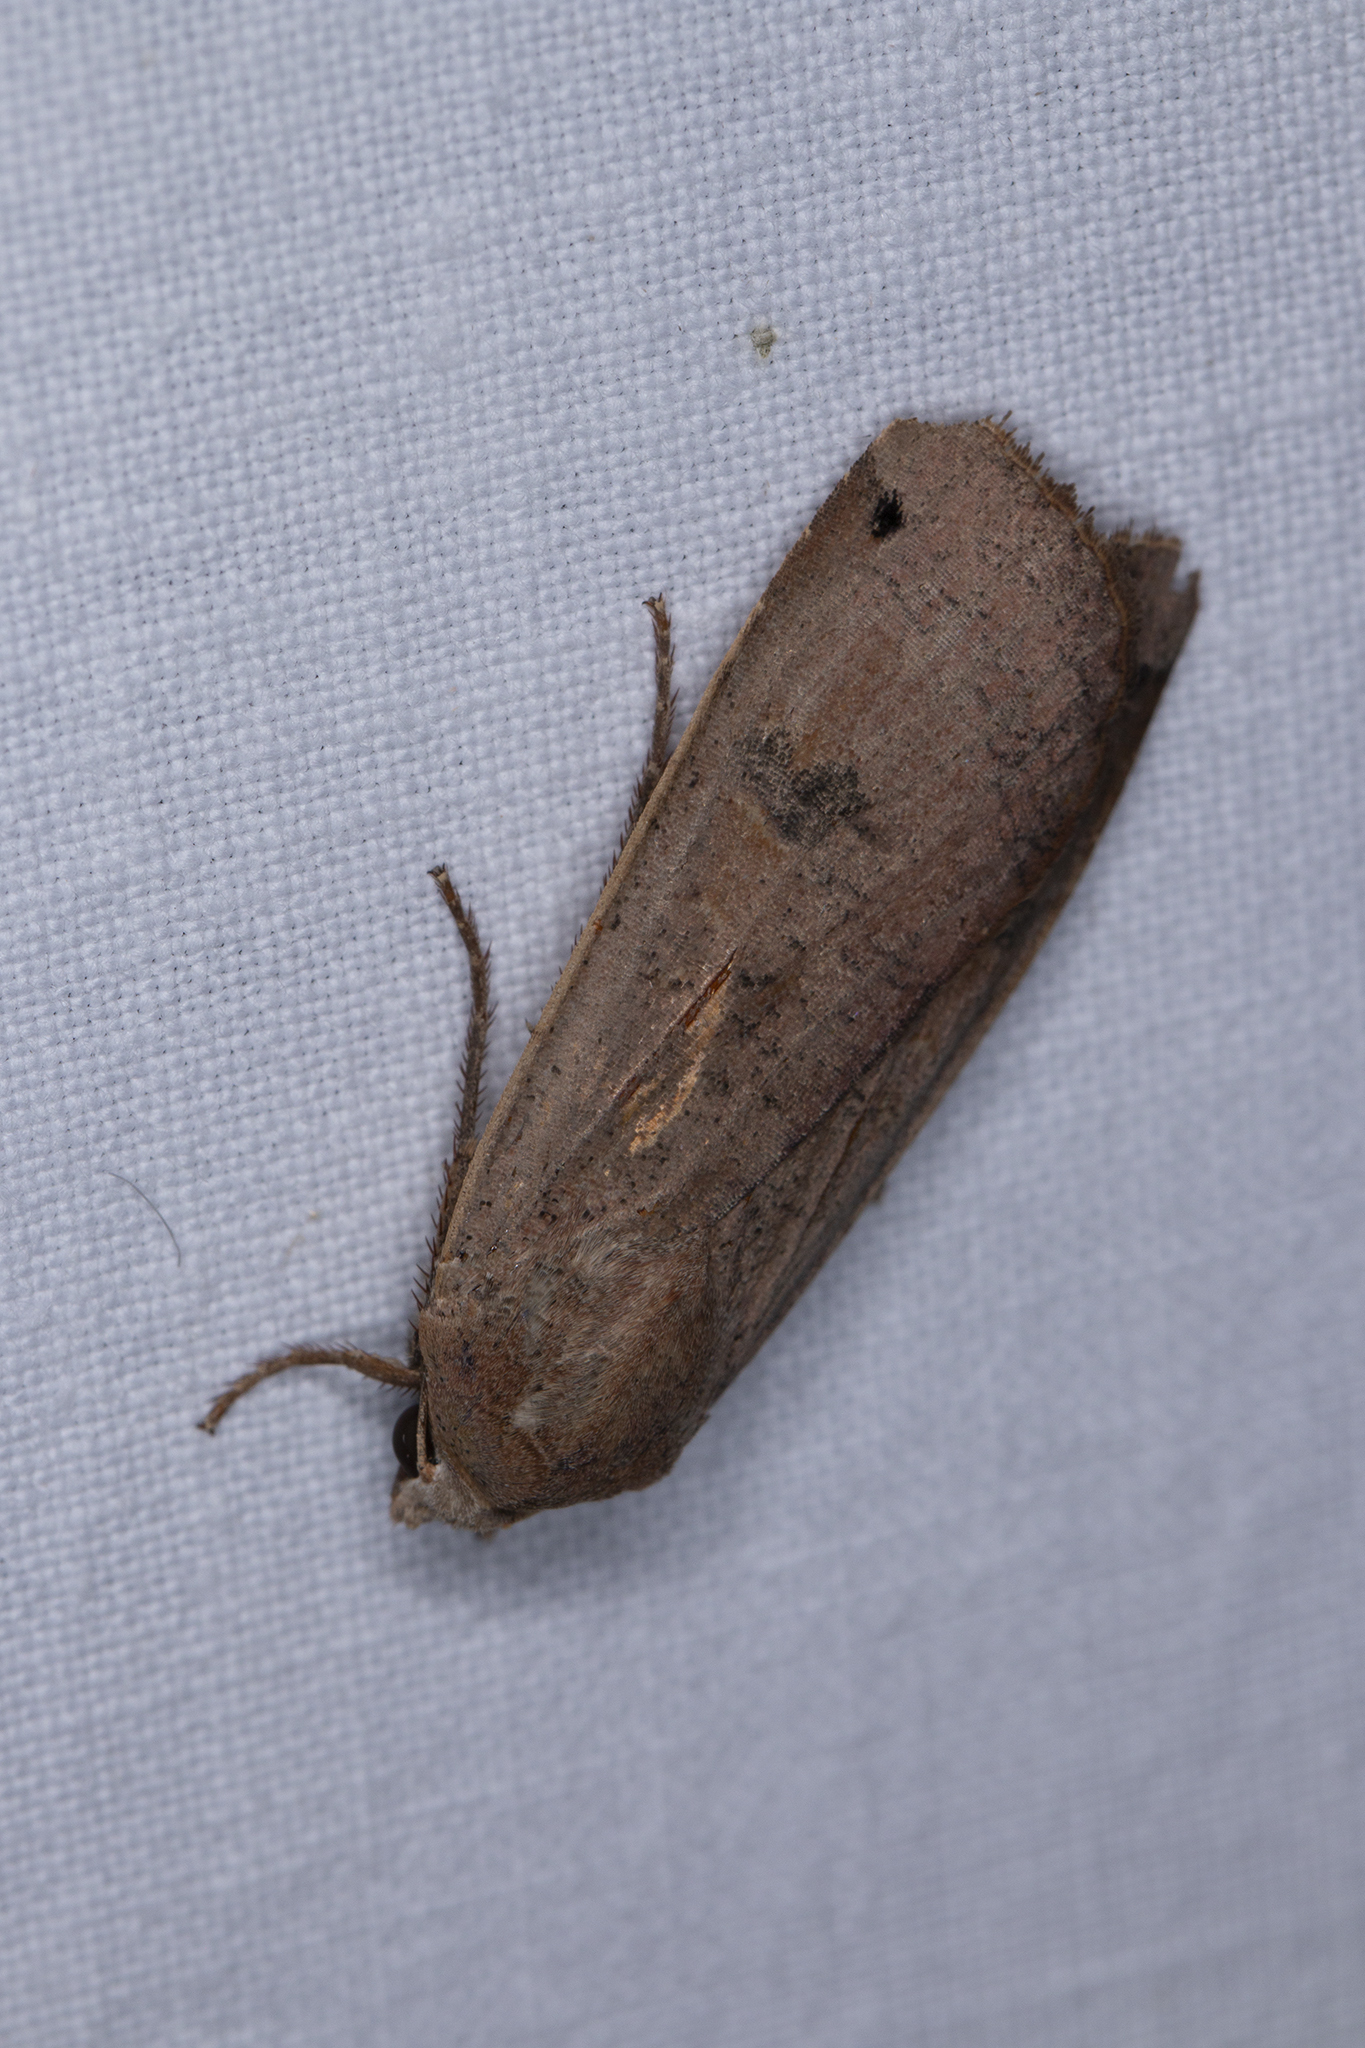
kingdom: Animalia
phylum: Arthropoda
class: Insecta
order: Lepidoptera
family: Noctuidae
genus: Noctua
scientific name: Noctua pronuba
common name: Large yellow underwing
